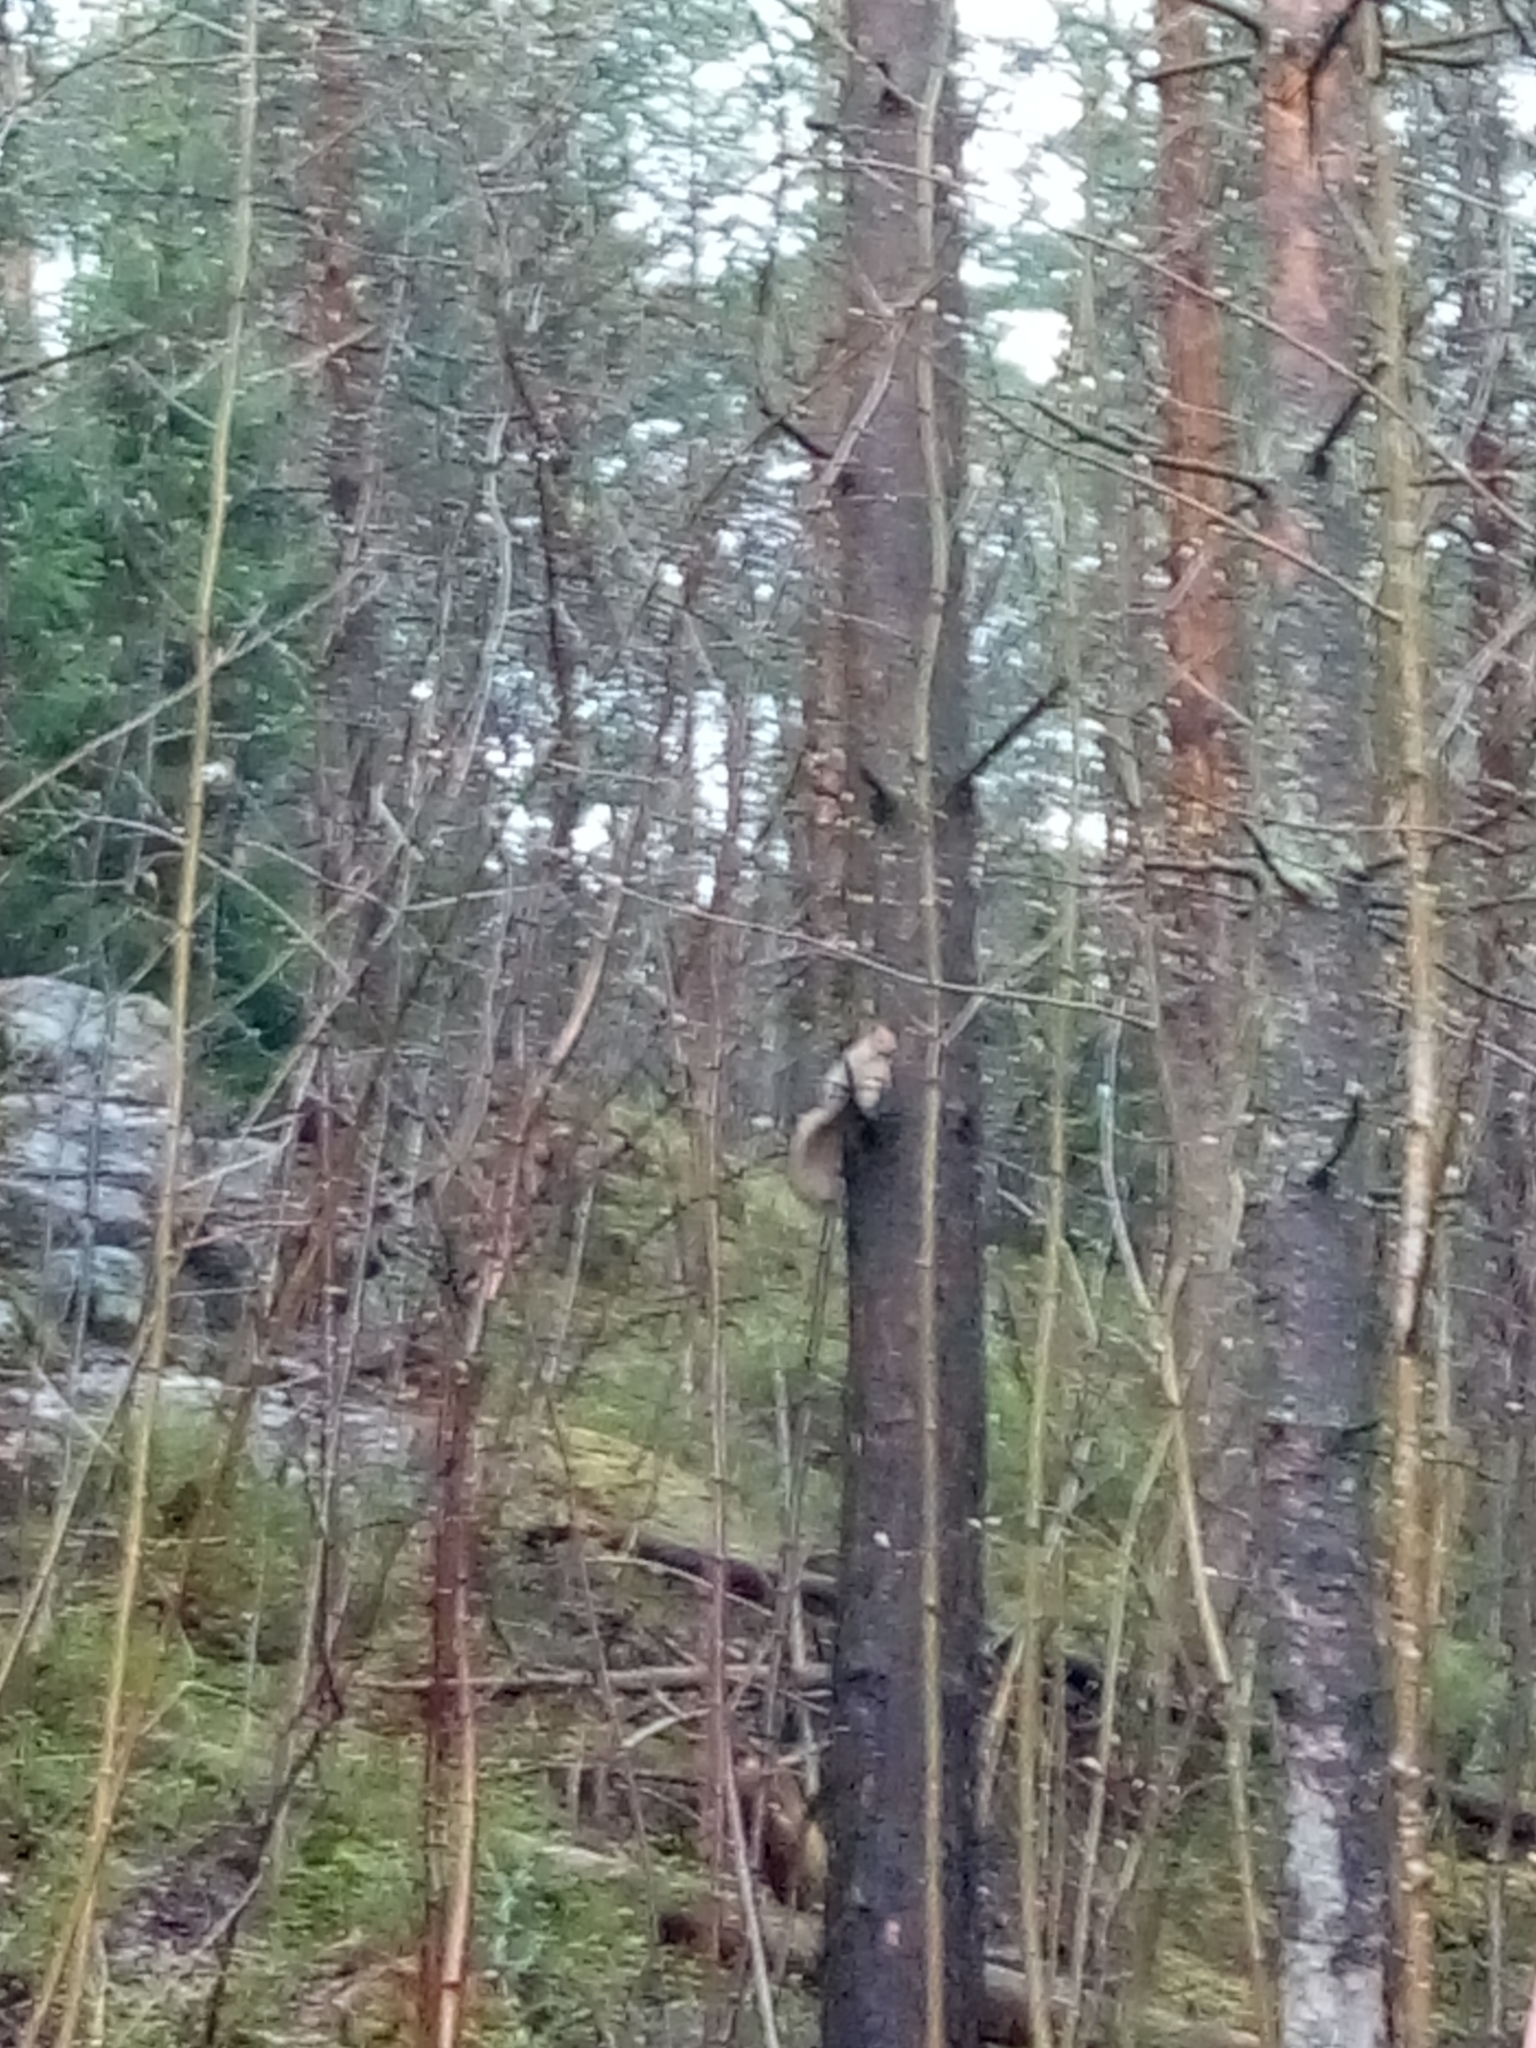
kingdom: Animalia
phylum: Chordata
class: Mammalia
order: Rodentia
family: Sciuridae
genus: Sciurus
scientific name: Sciurus vulgaris
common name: Eurasian red squirrel
